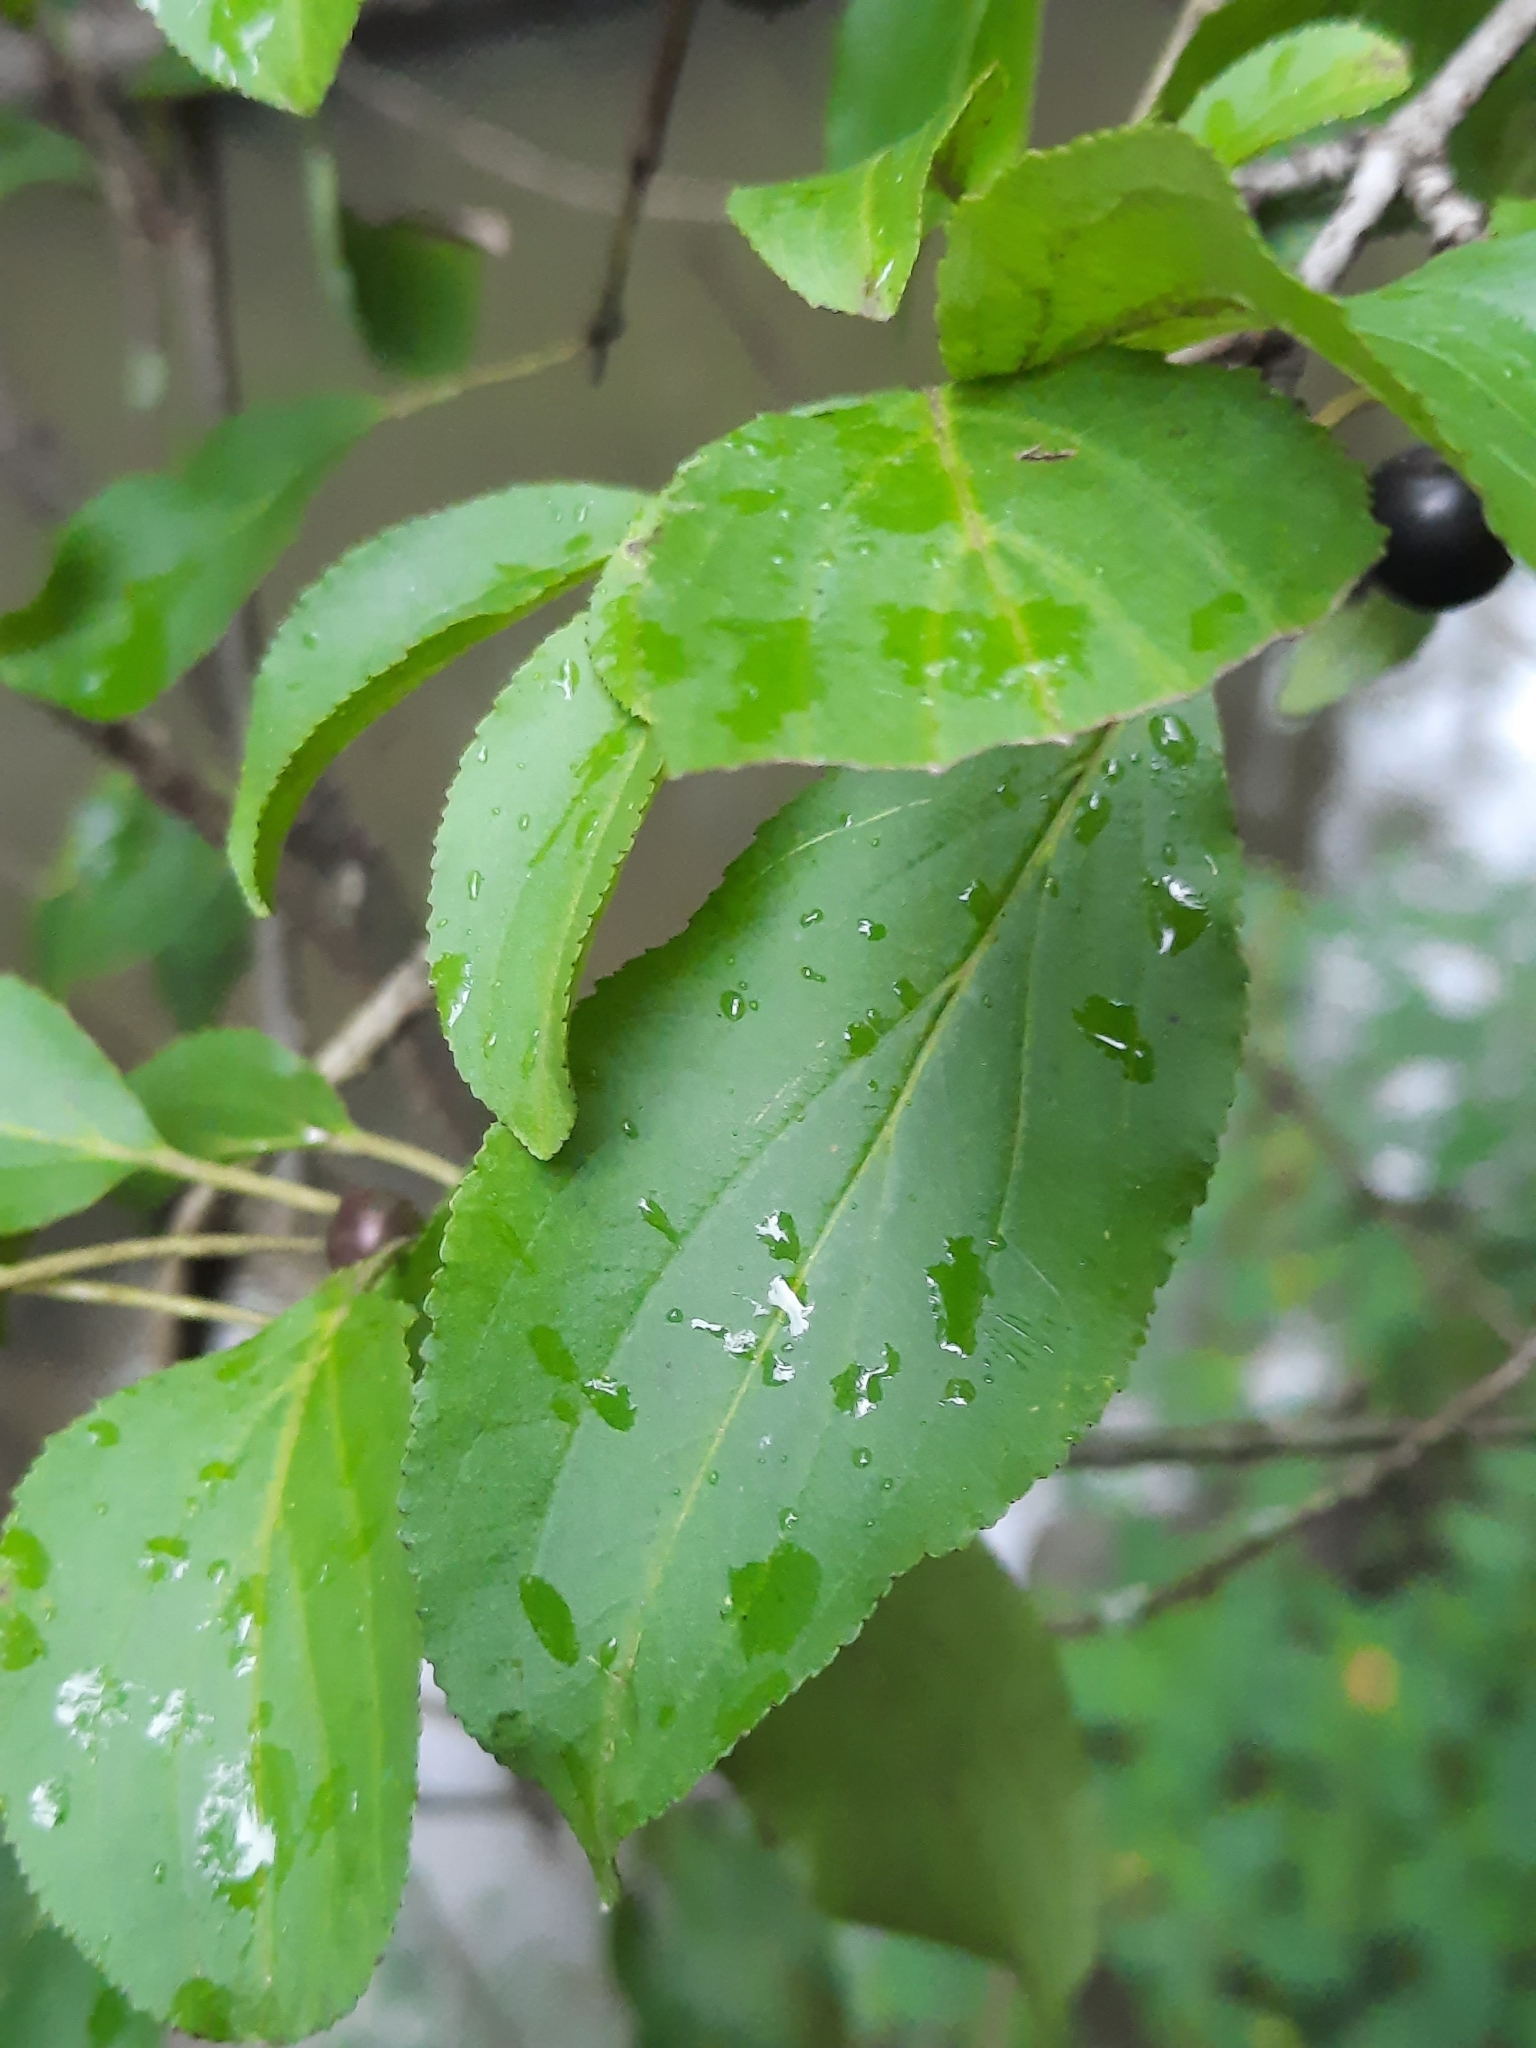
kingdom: Plantae
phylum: Tracheophyta
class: Magnoliopsida
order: Rosales
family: Rhamnaceae
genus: Rhamnus
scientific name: Rhamnus cathartica
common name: Common buckthorn
